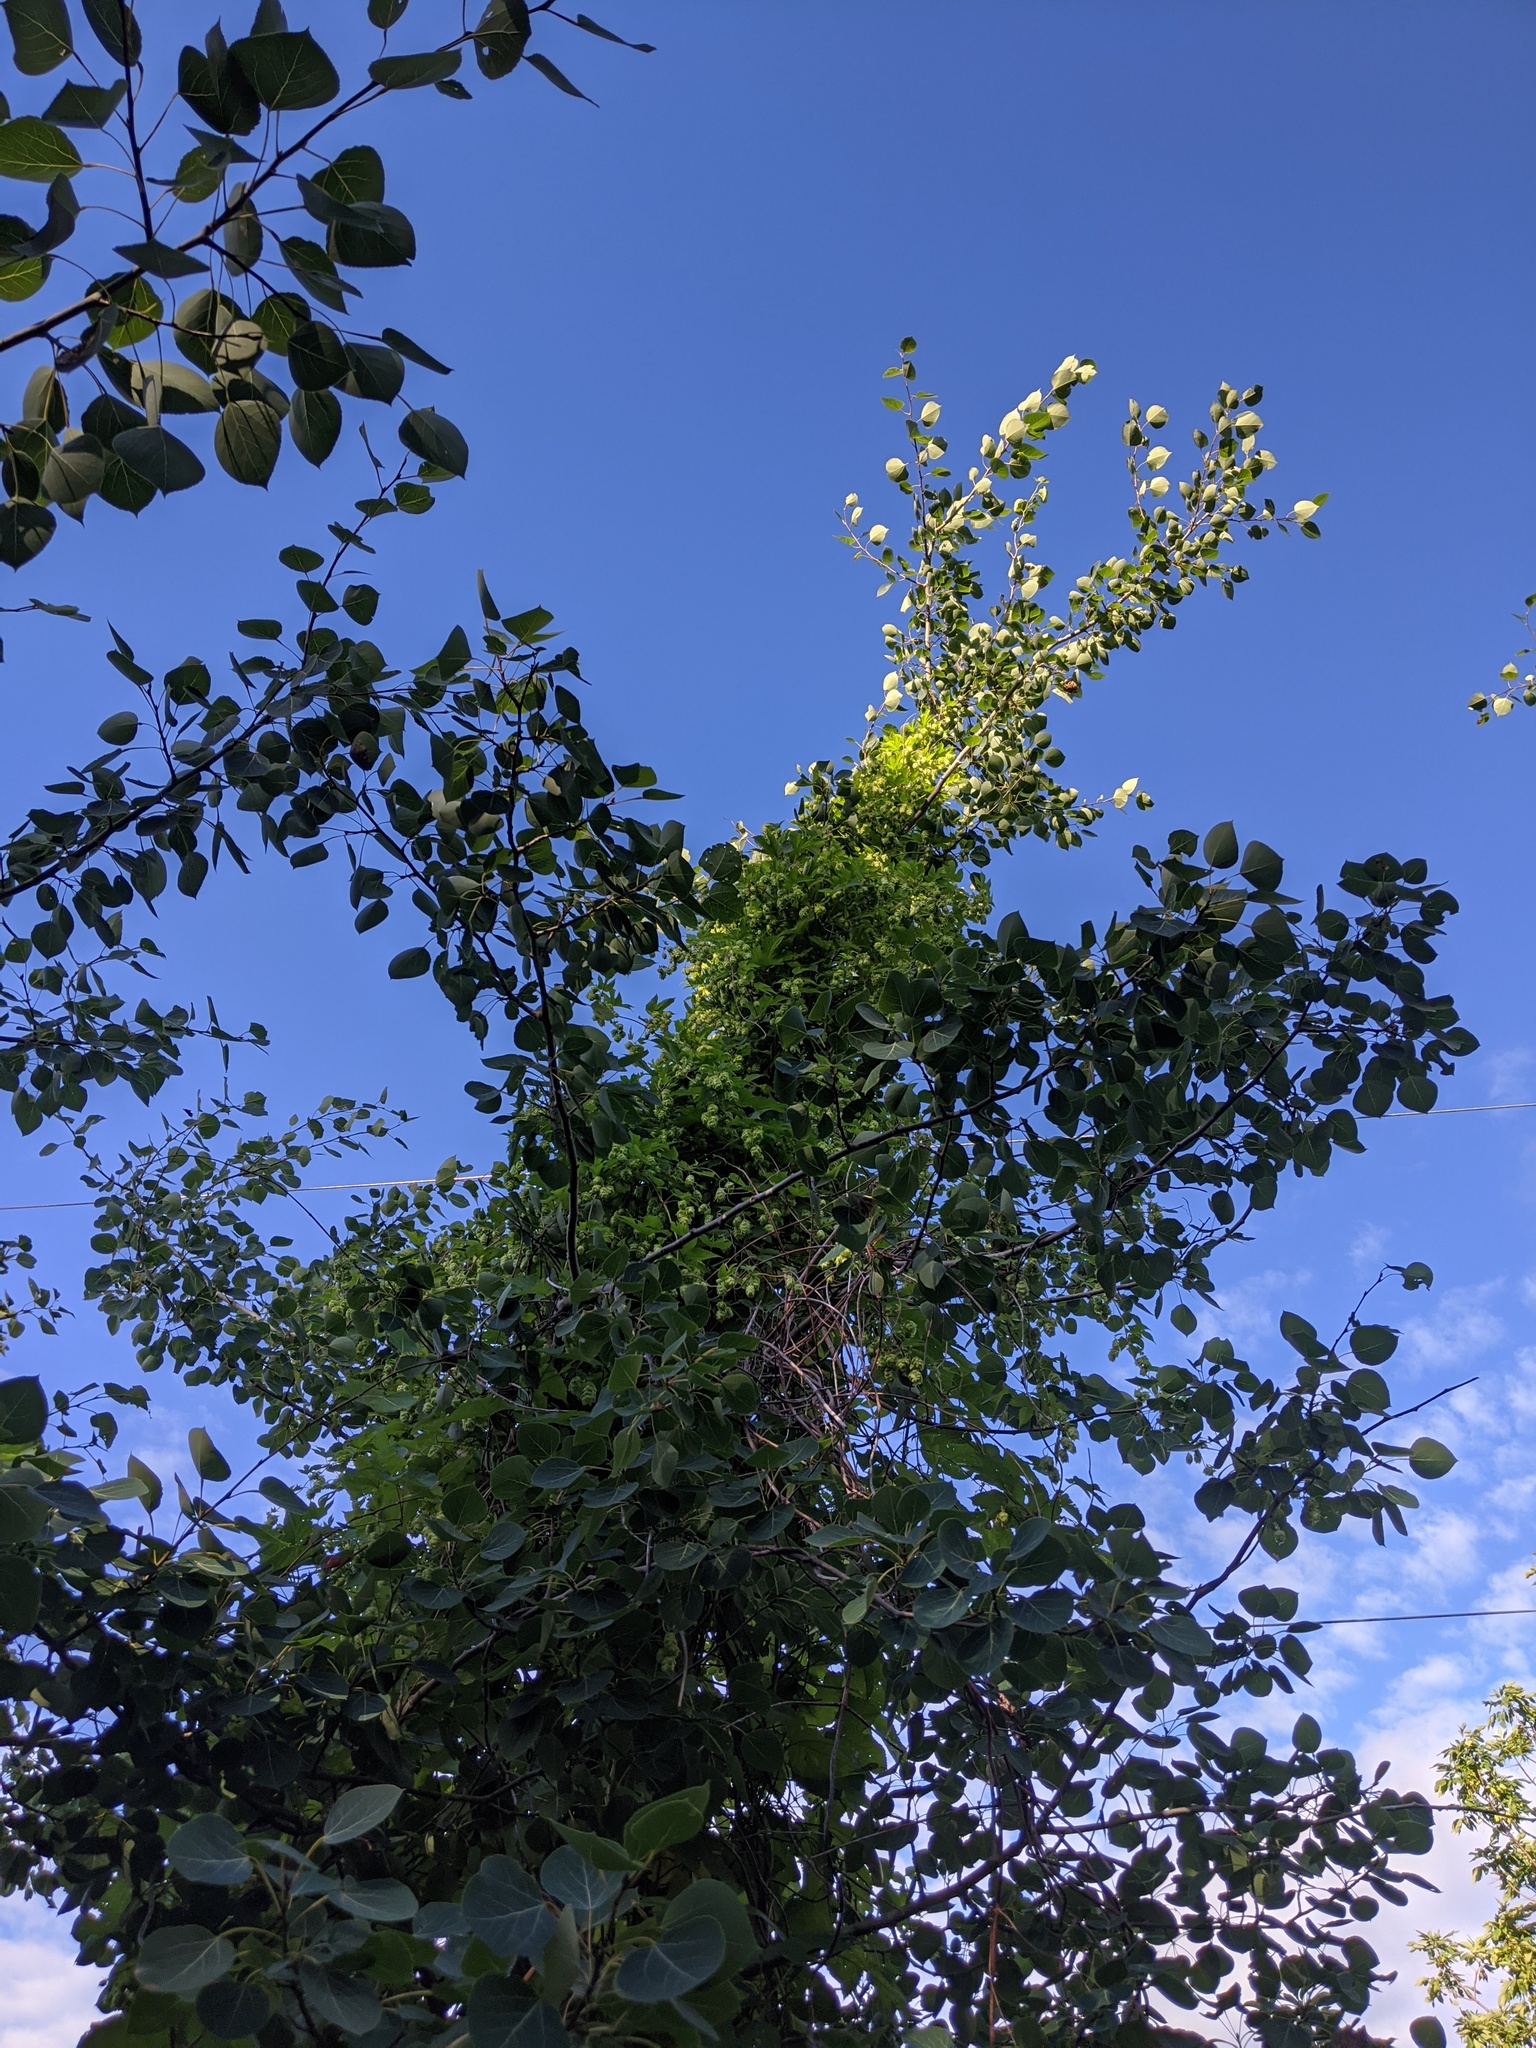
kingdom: Plantae
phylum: Tracheophyta
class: Magnoliopsida
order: Rosales
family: Cannabaceae
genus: Humulus
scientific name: Humulus lupulus
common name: Hop
